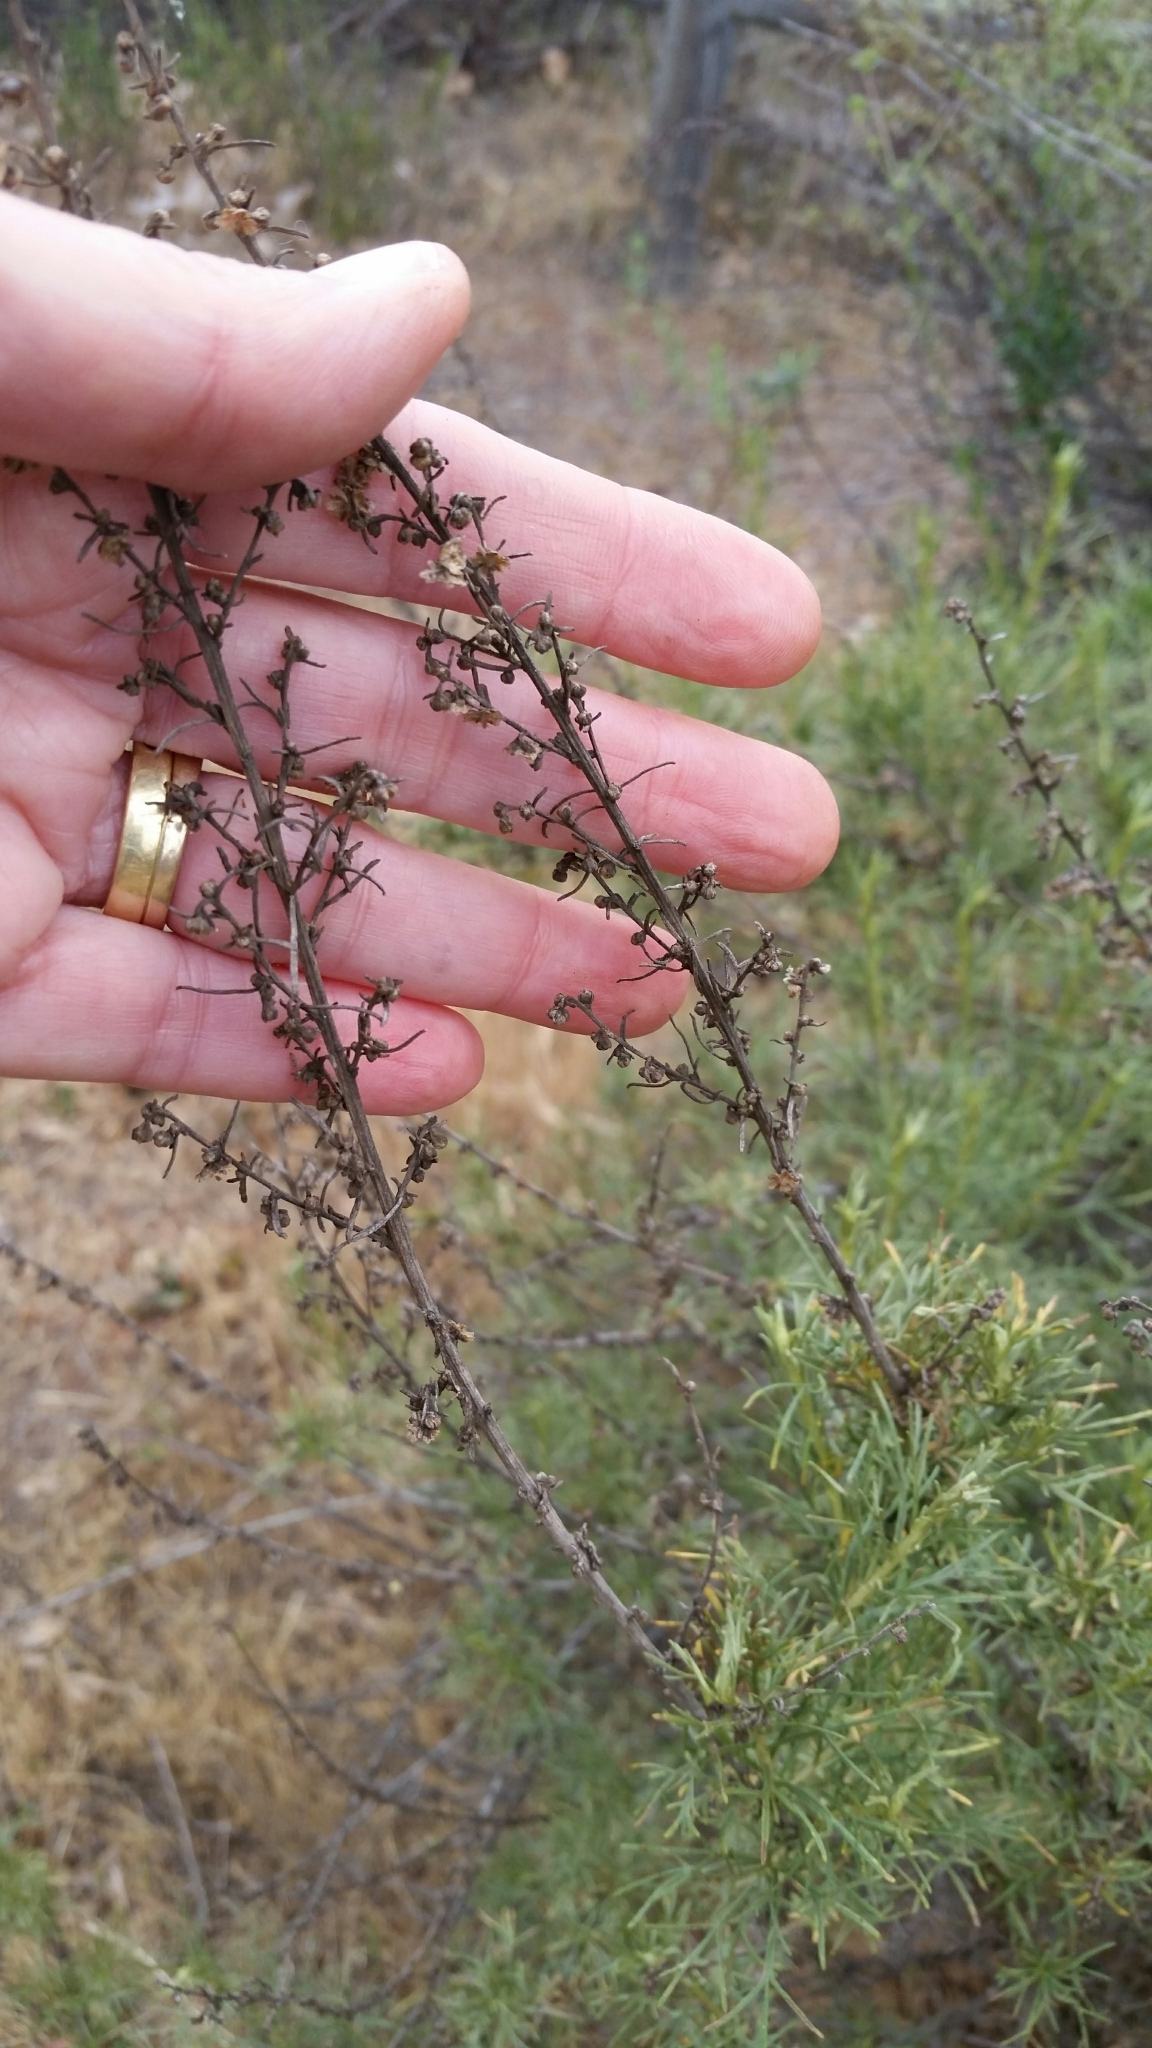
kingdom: Plantae
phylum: Tracheophyta
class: Magnoliopsida
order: Asterales
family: Asteraceae
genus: Artemisia
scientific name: Artemisia californica
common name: California sagebrush
